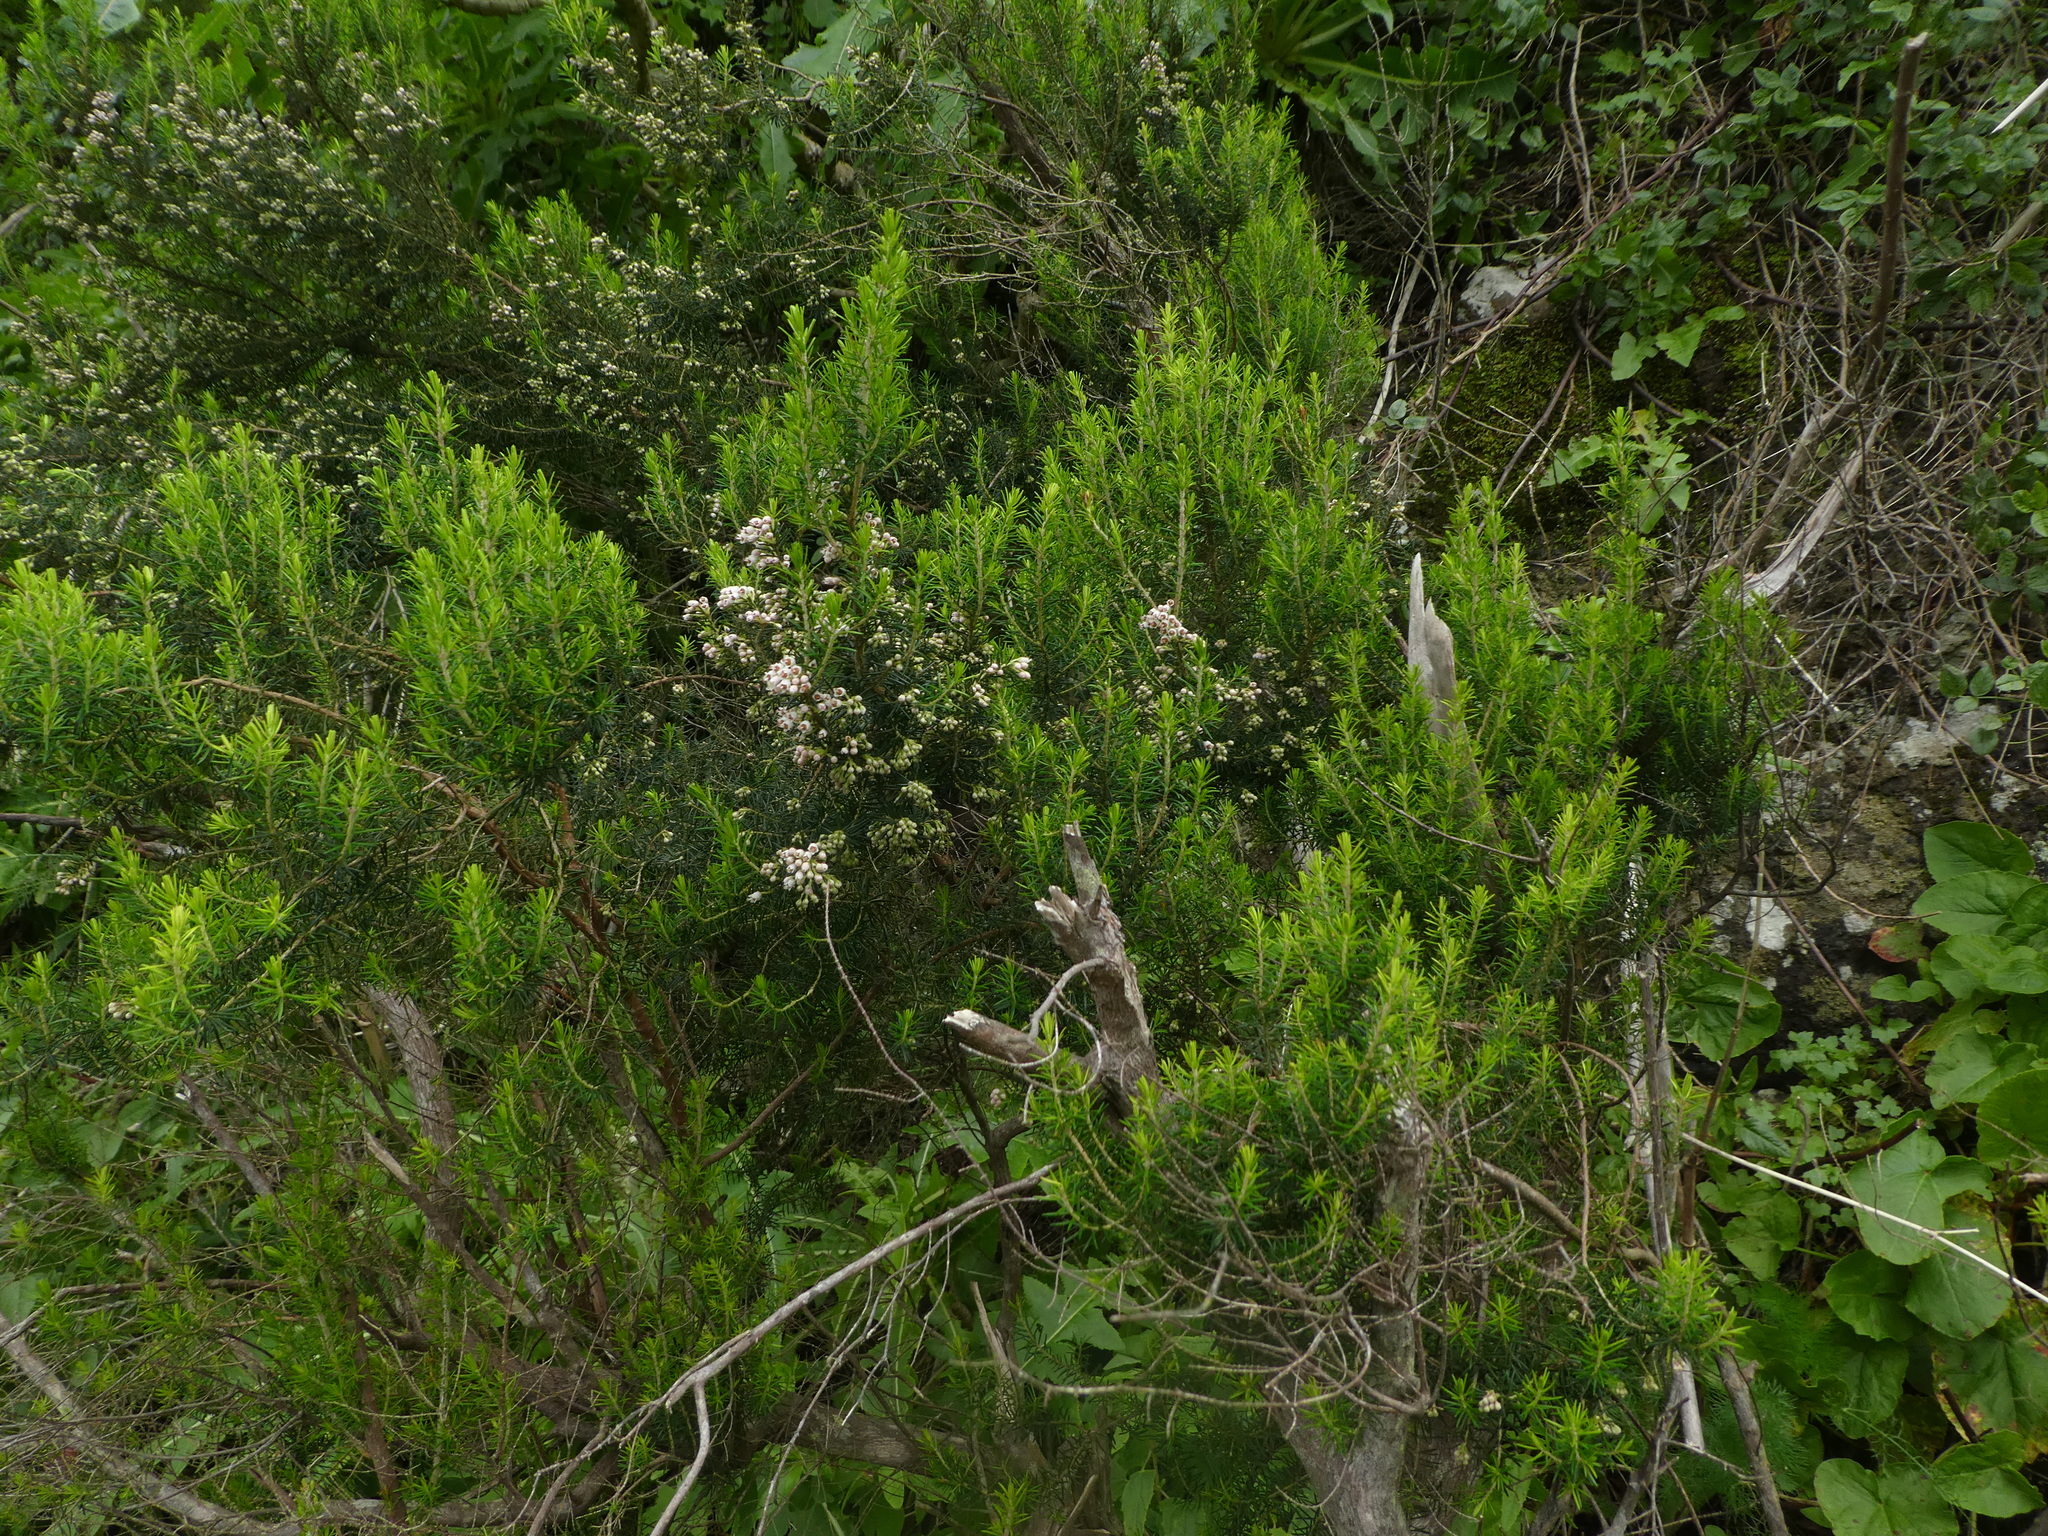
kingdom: Plantae
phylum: Tracheophyta
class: Magnoliopsida
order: Ericales
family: Ericaceae
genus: Erica
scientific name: Erica canariensis
